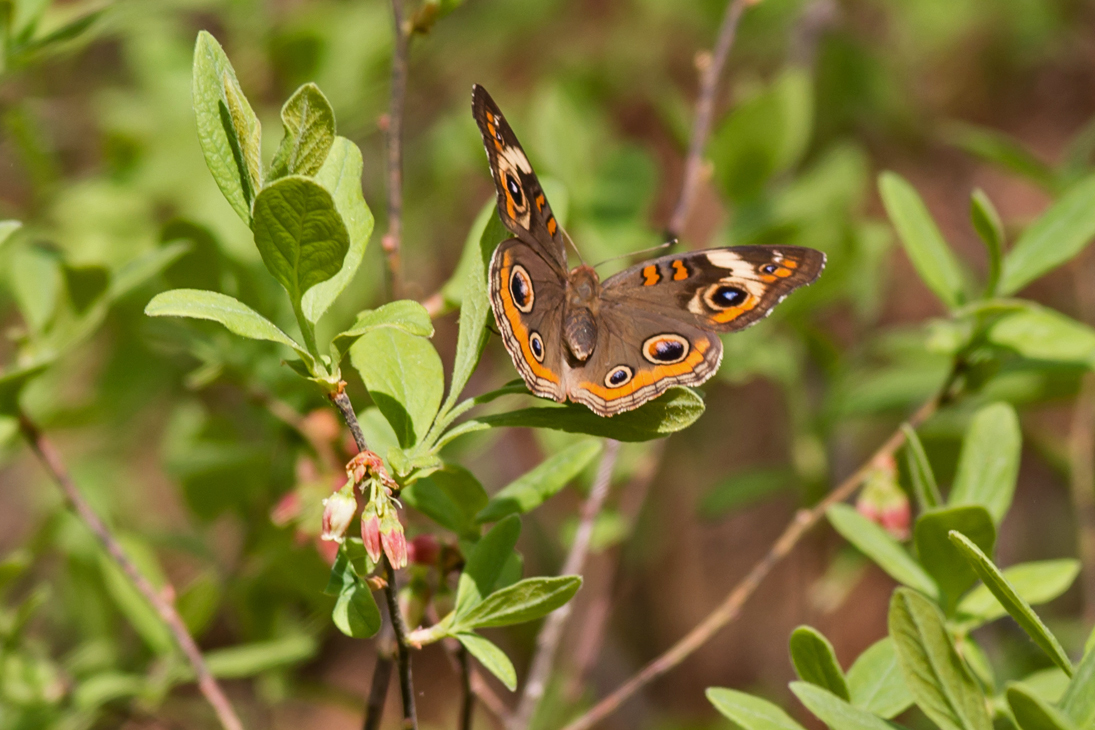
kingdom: Animalia
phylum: Arthropoda
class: Insecta
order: Lepidoptera
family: Nymphalidae
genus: Junonia
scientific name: Junonia coenia
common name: Common buckeye
